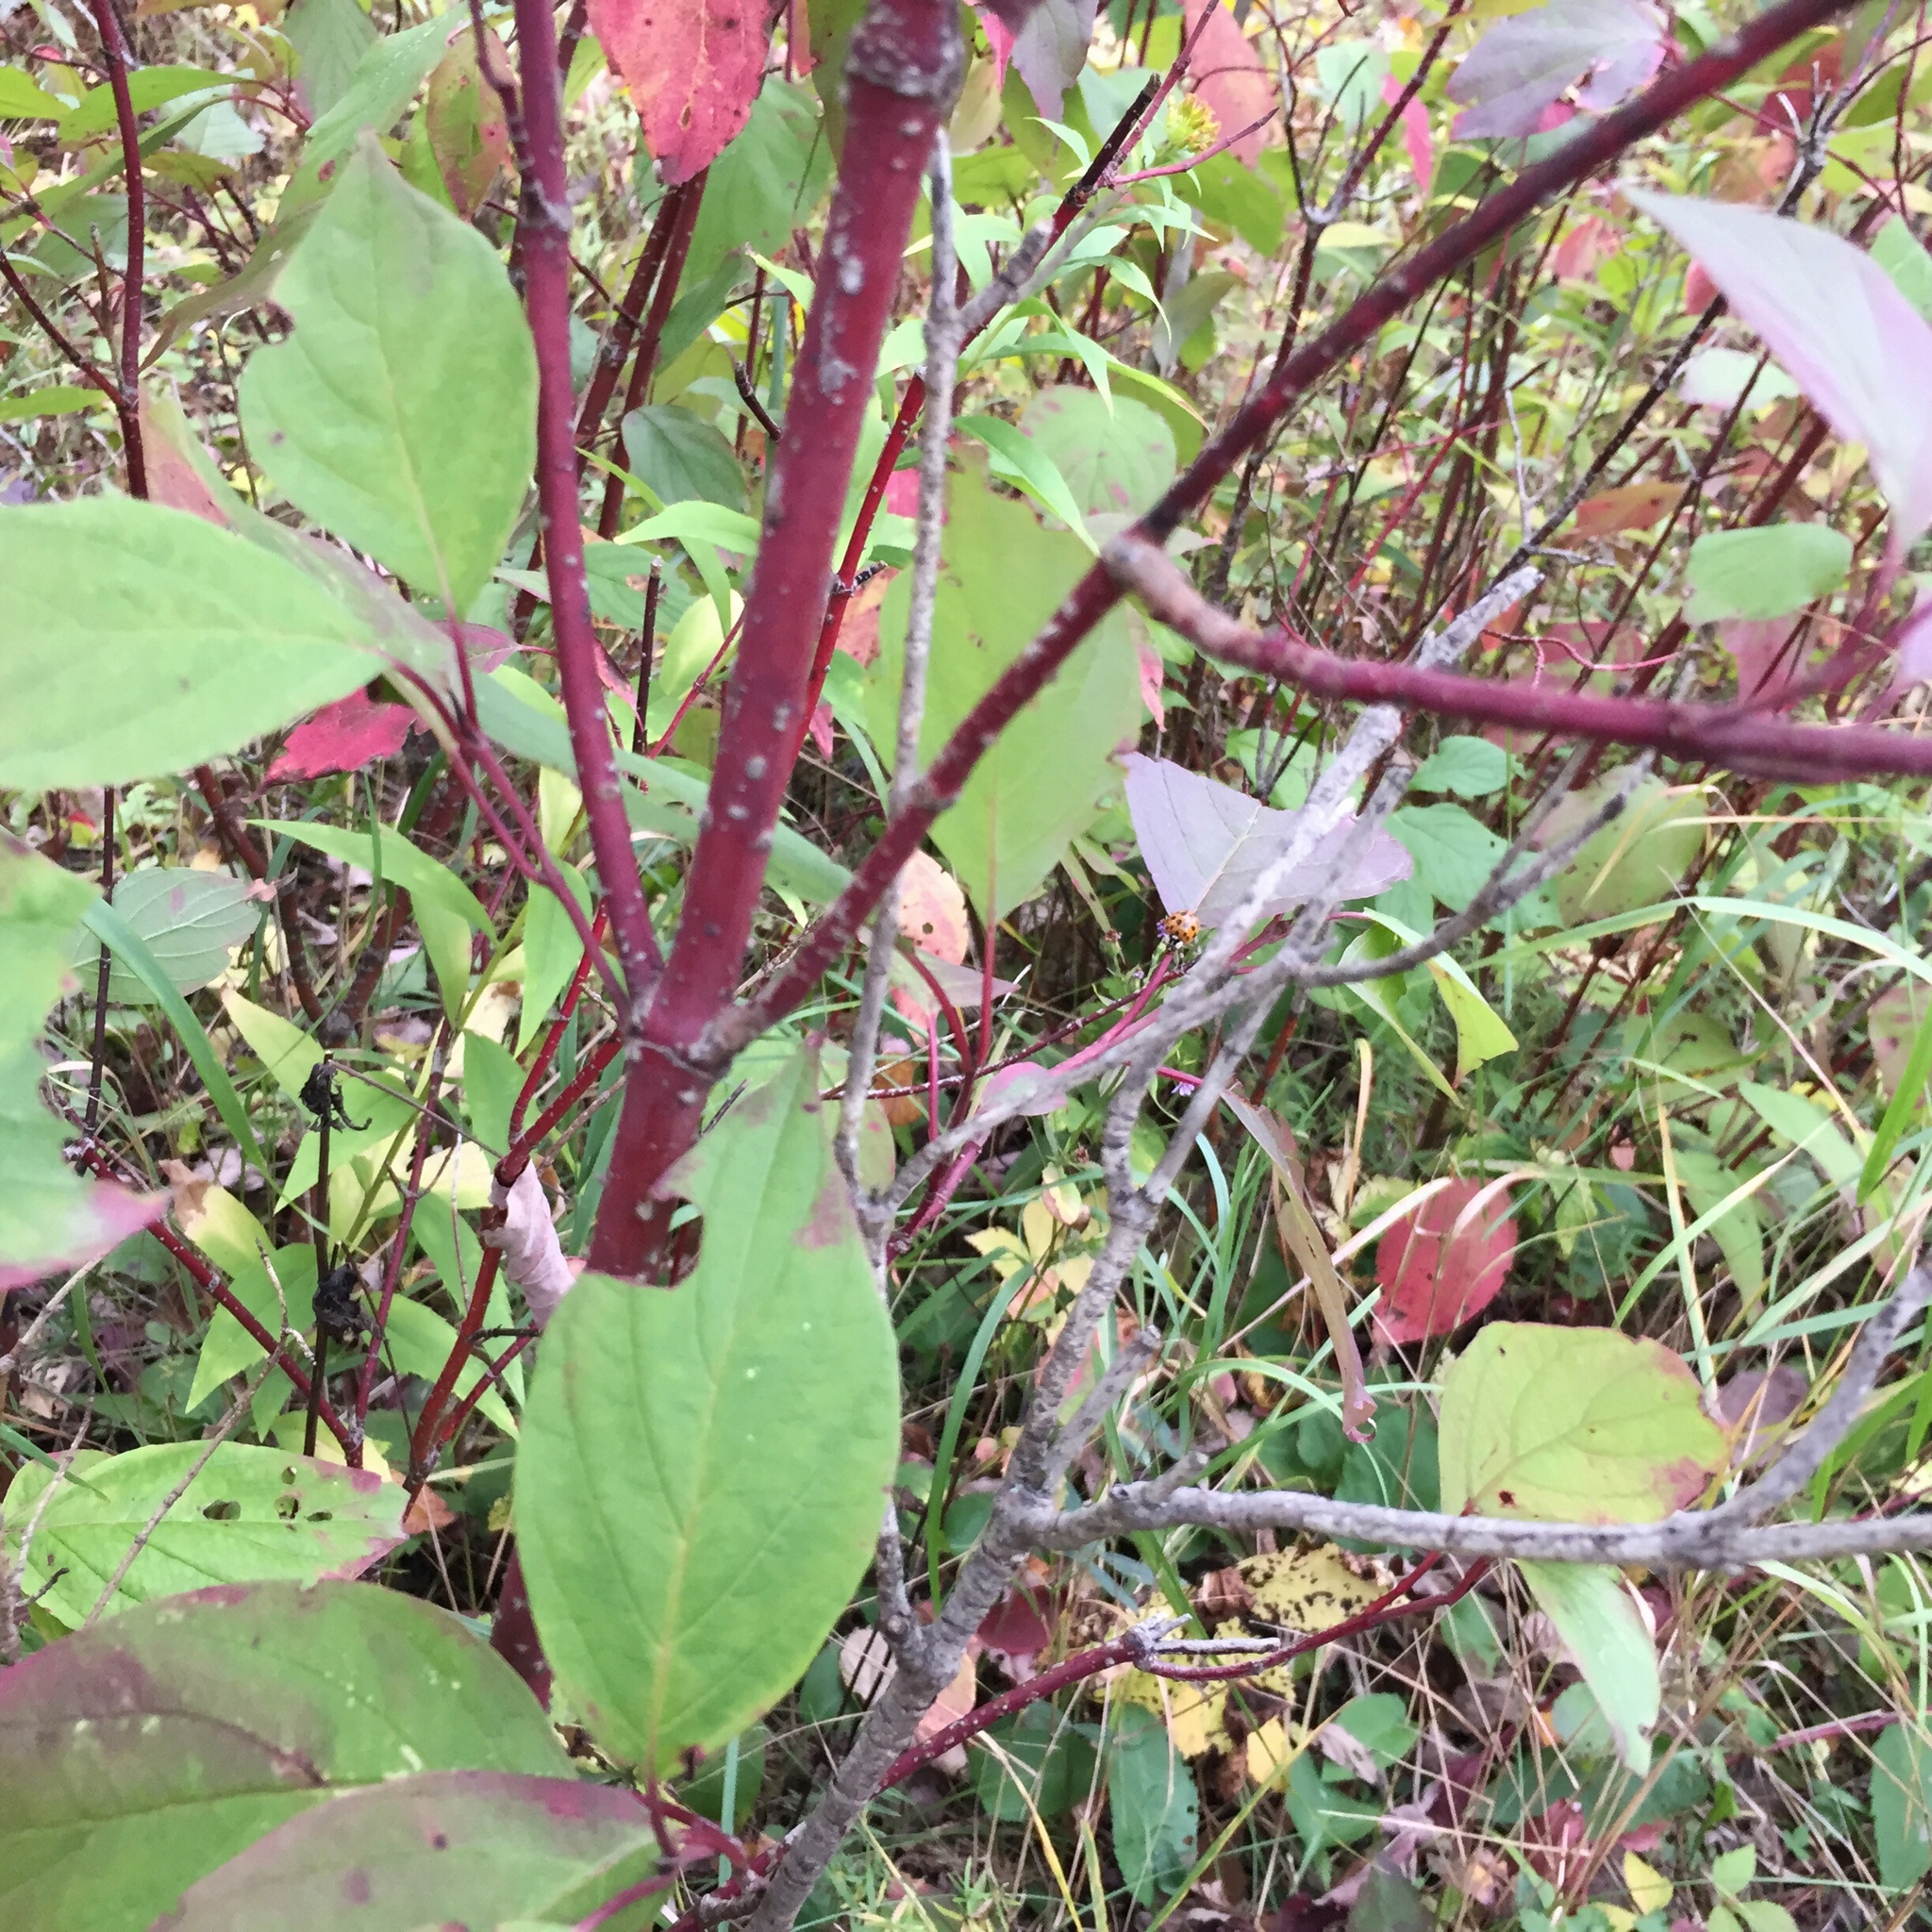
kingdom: Plantae
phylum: Tracheophyta
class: Magnoliopsida
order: Cornales
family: Cornaceae
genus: Cornus
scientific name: Cornus sericea
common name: Red-osier dogwood
